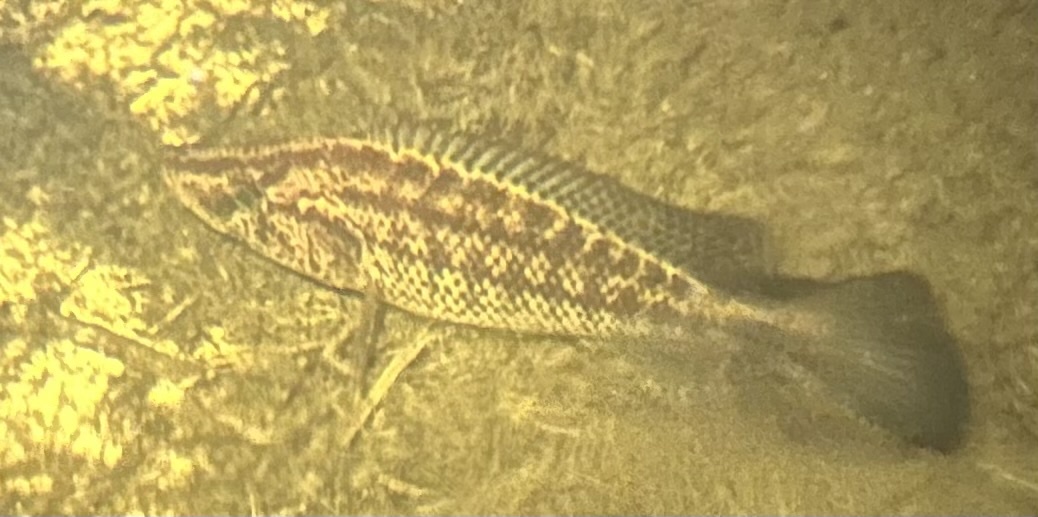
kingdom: Animalia
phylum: Chordata
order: Perciformes
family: Cichlidae
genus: Serranochromis
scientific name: Serranochromis angusticeps
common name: Thinface largemouth
